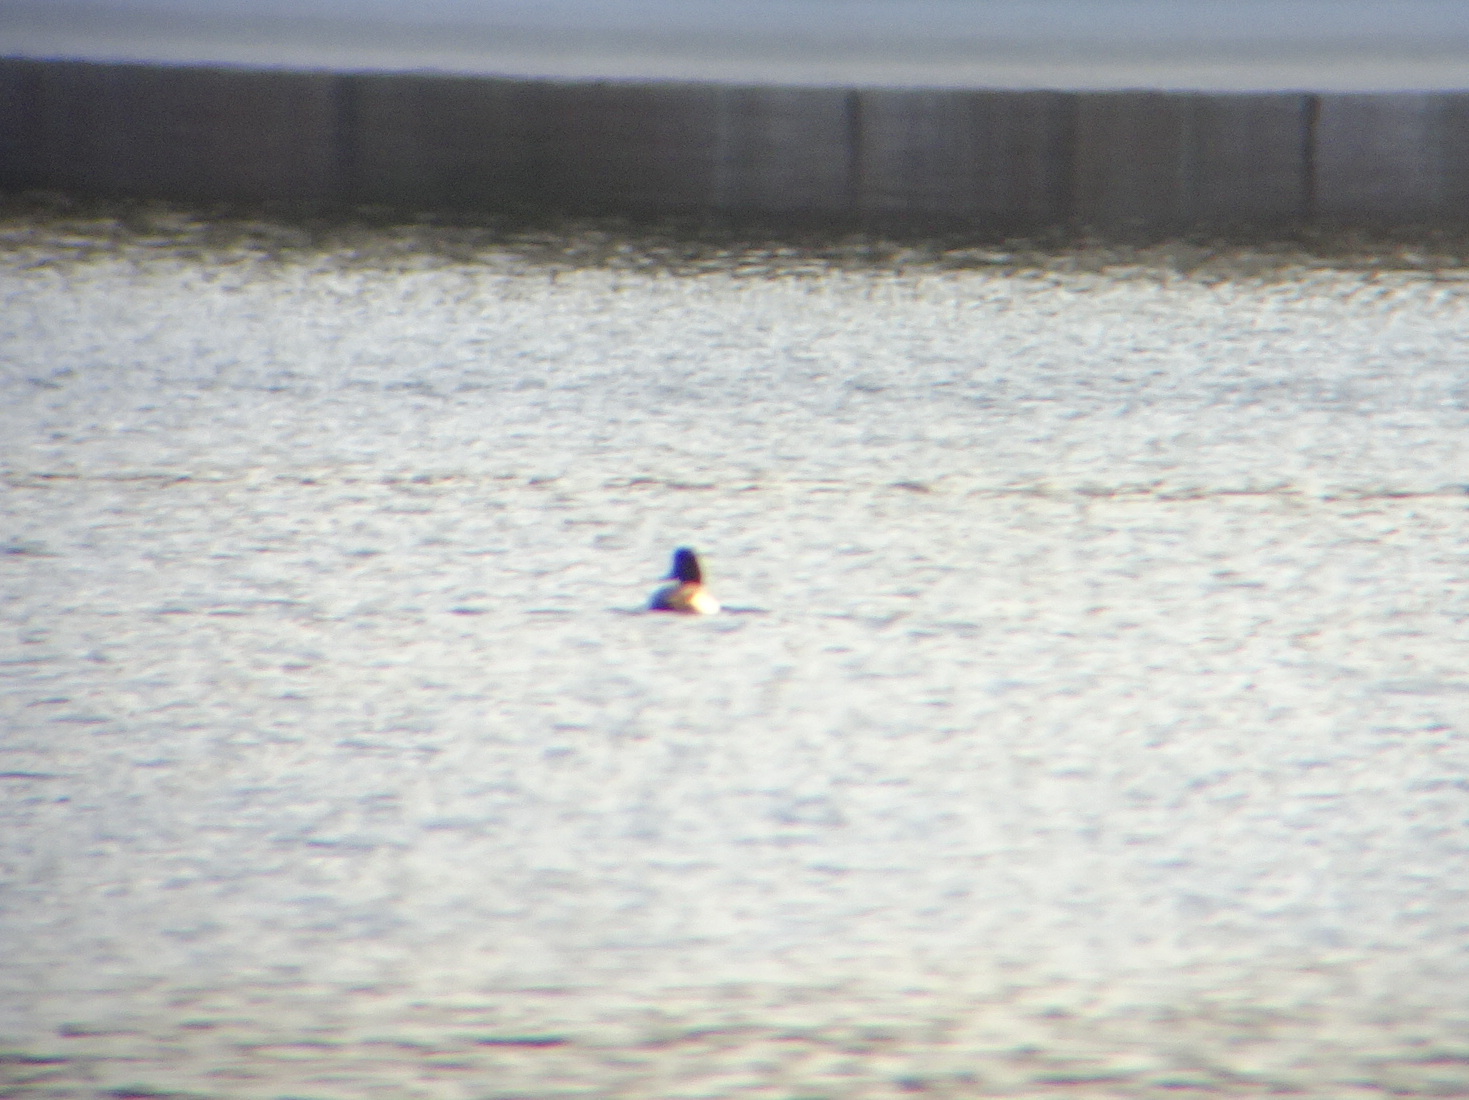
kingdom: Animalia
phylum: Chordata
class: Aves
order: Anseriformes
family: Anatidae
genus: Aythya
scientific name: Aythya affinis
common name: Lesser scaup
